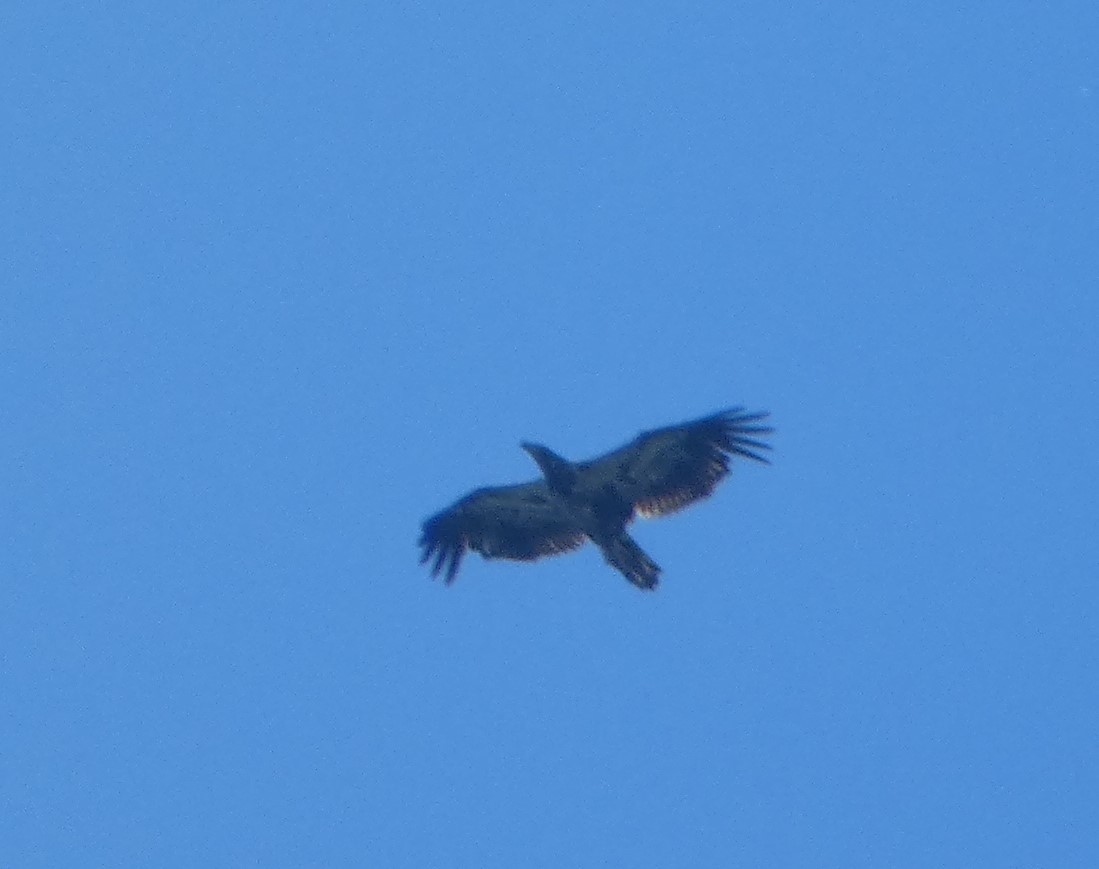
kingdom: Animalia
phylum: Chordata
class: Aves
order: Accipitriformes
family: Accipitridae
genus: Haliaeetus
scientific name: Haliaeetus leucocephalus
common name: Bald eagle
